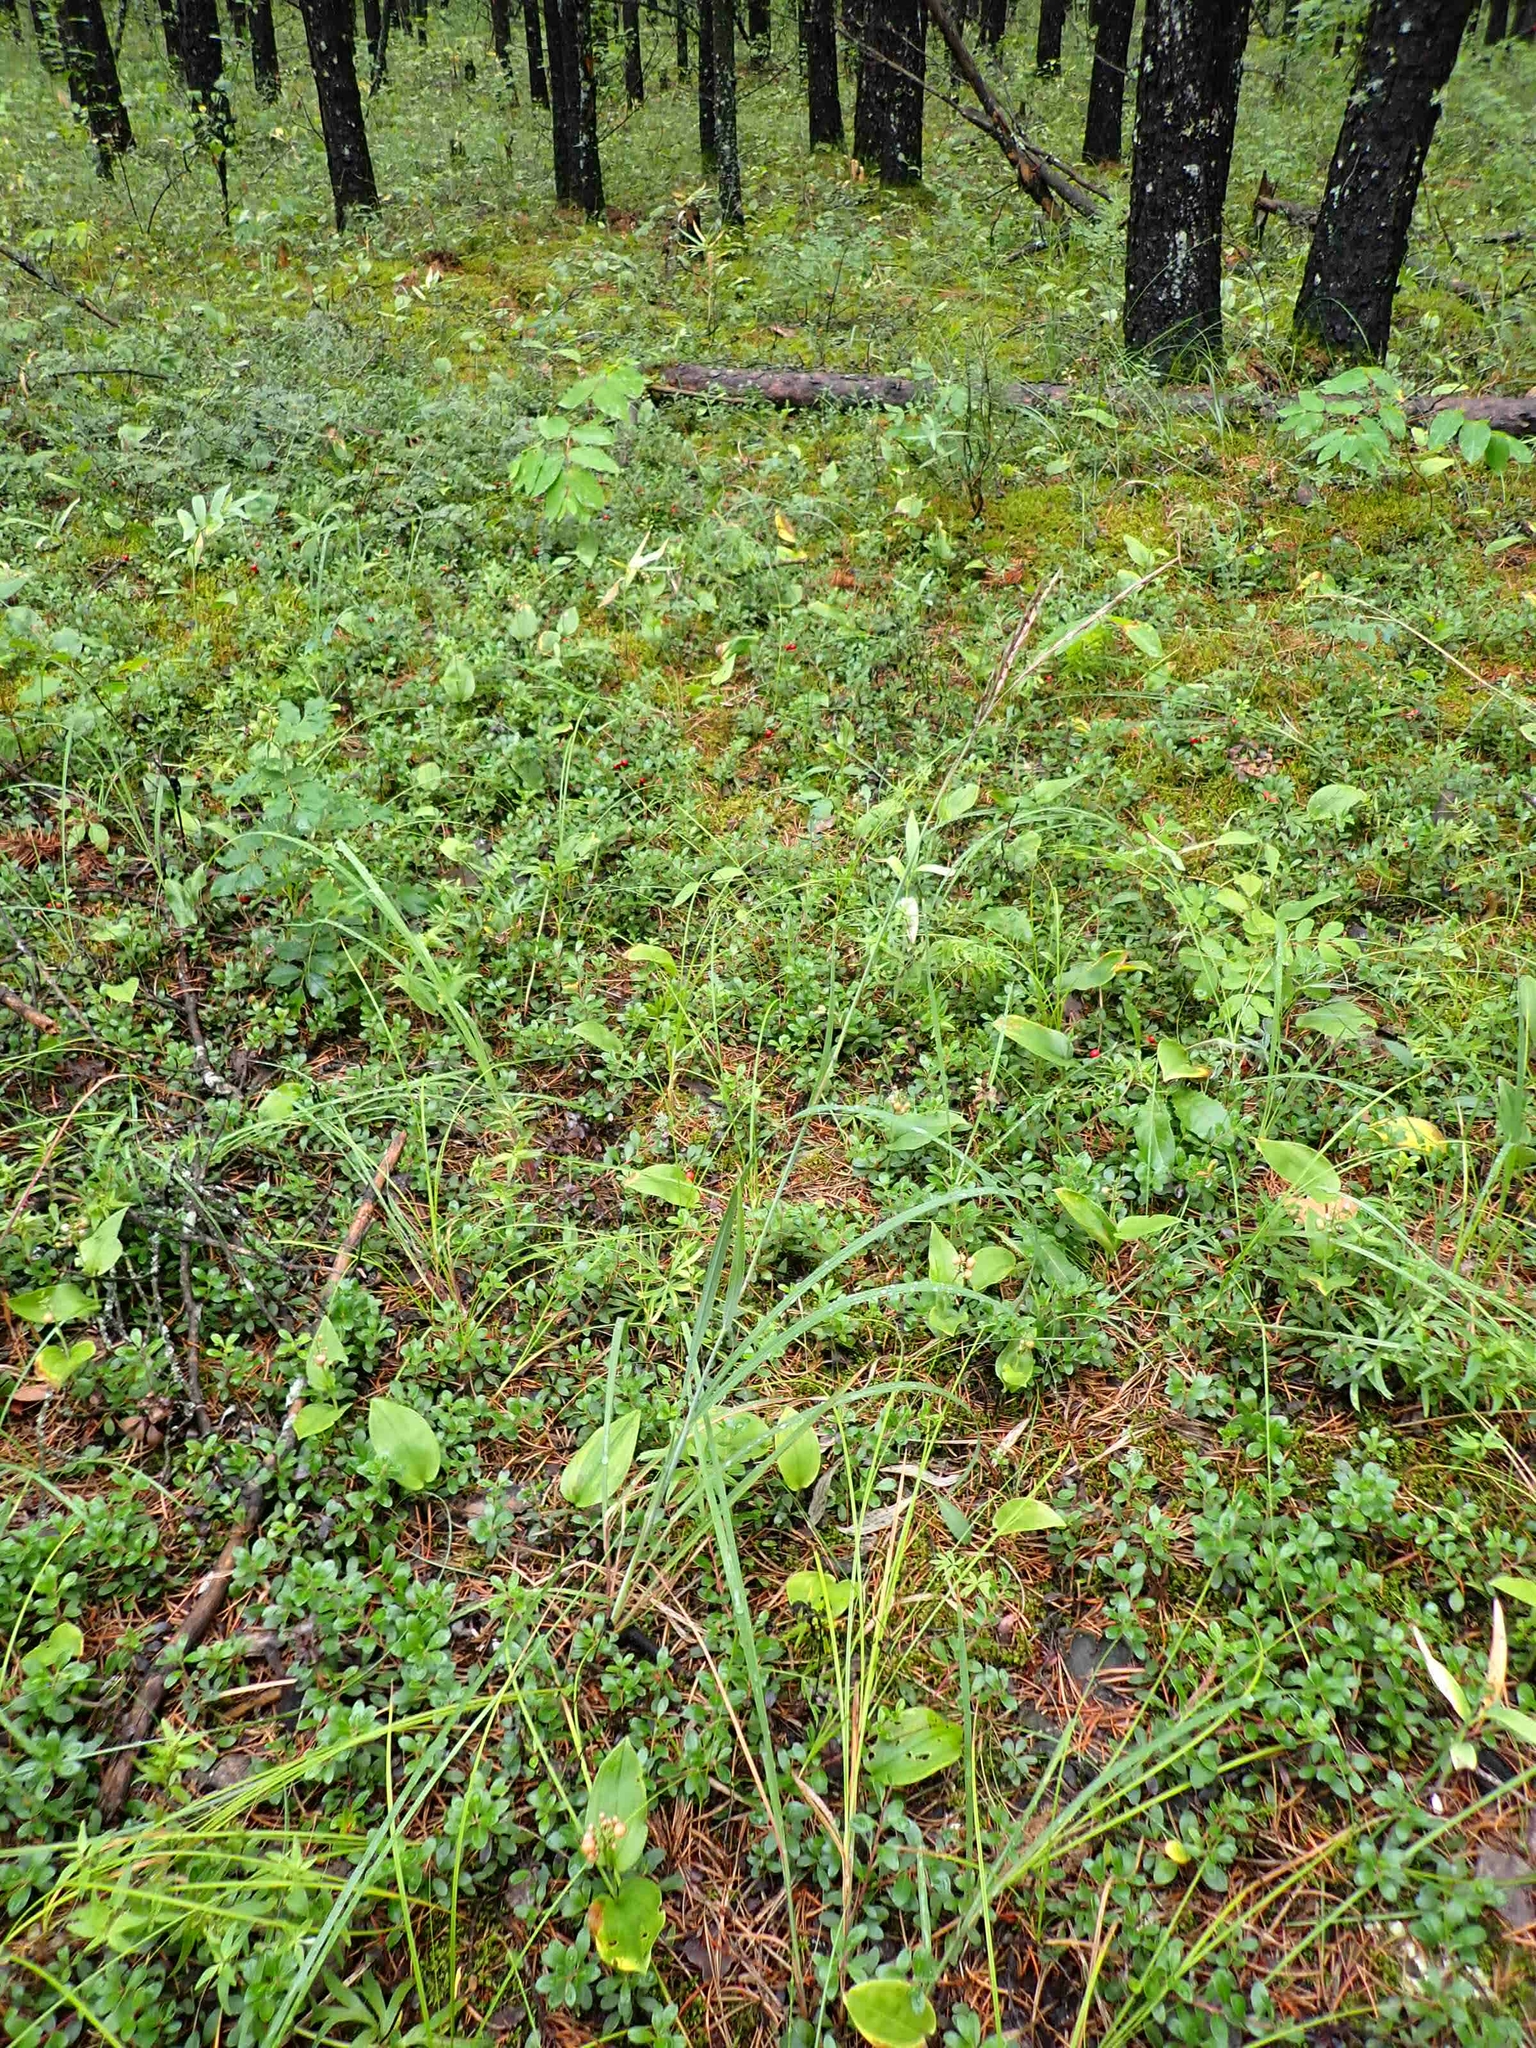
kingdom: Plantae
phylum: Tracheophyta
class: Liliopsida
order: Poales
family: Poaceae
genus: Andropogon
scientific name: Andropogon gerardi
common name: Big bluestem
